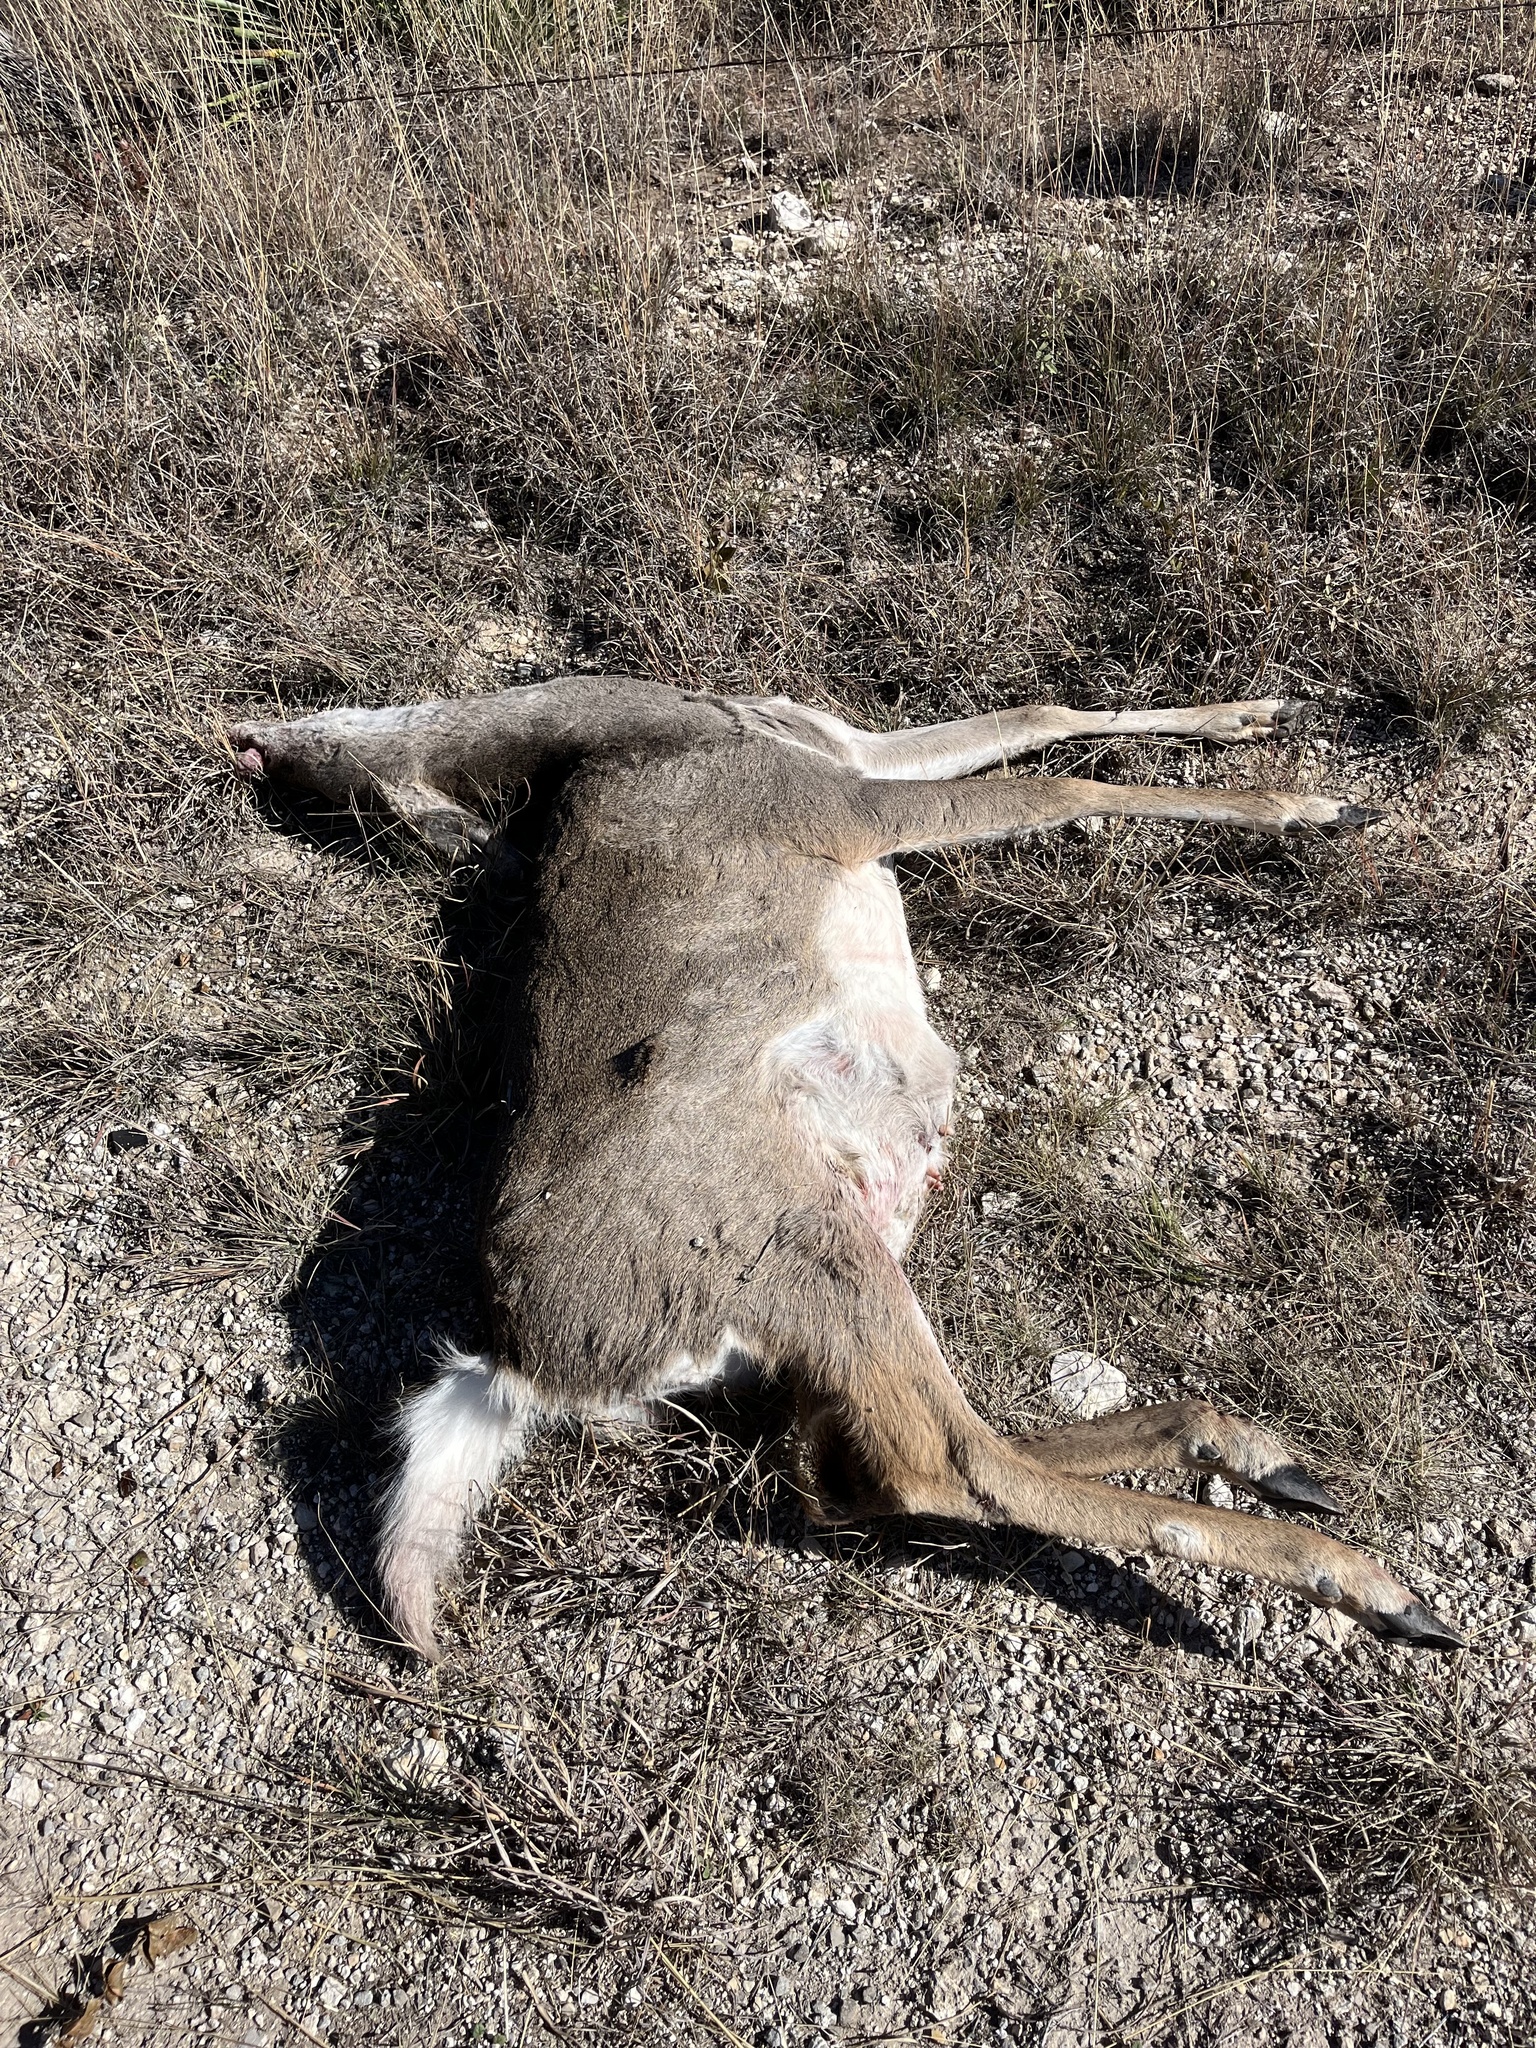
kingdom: Animalia
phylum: Chordata
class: Mammalia
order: Artiodactyla
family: Cervidae
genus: Odocoileus
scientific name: Odocoileus virginianus
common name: White-tailed deer
